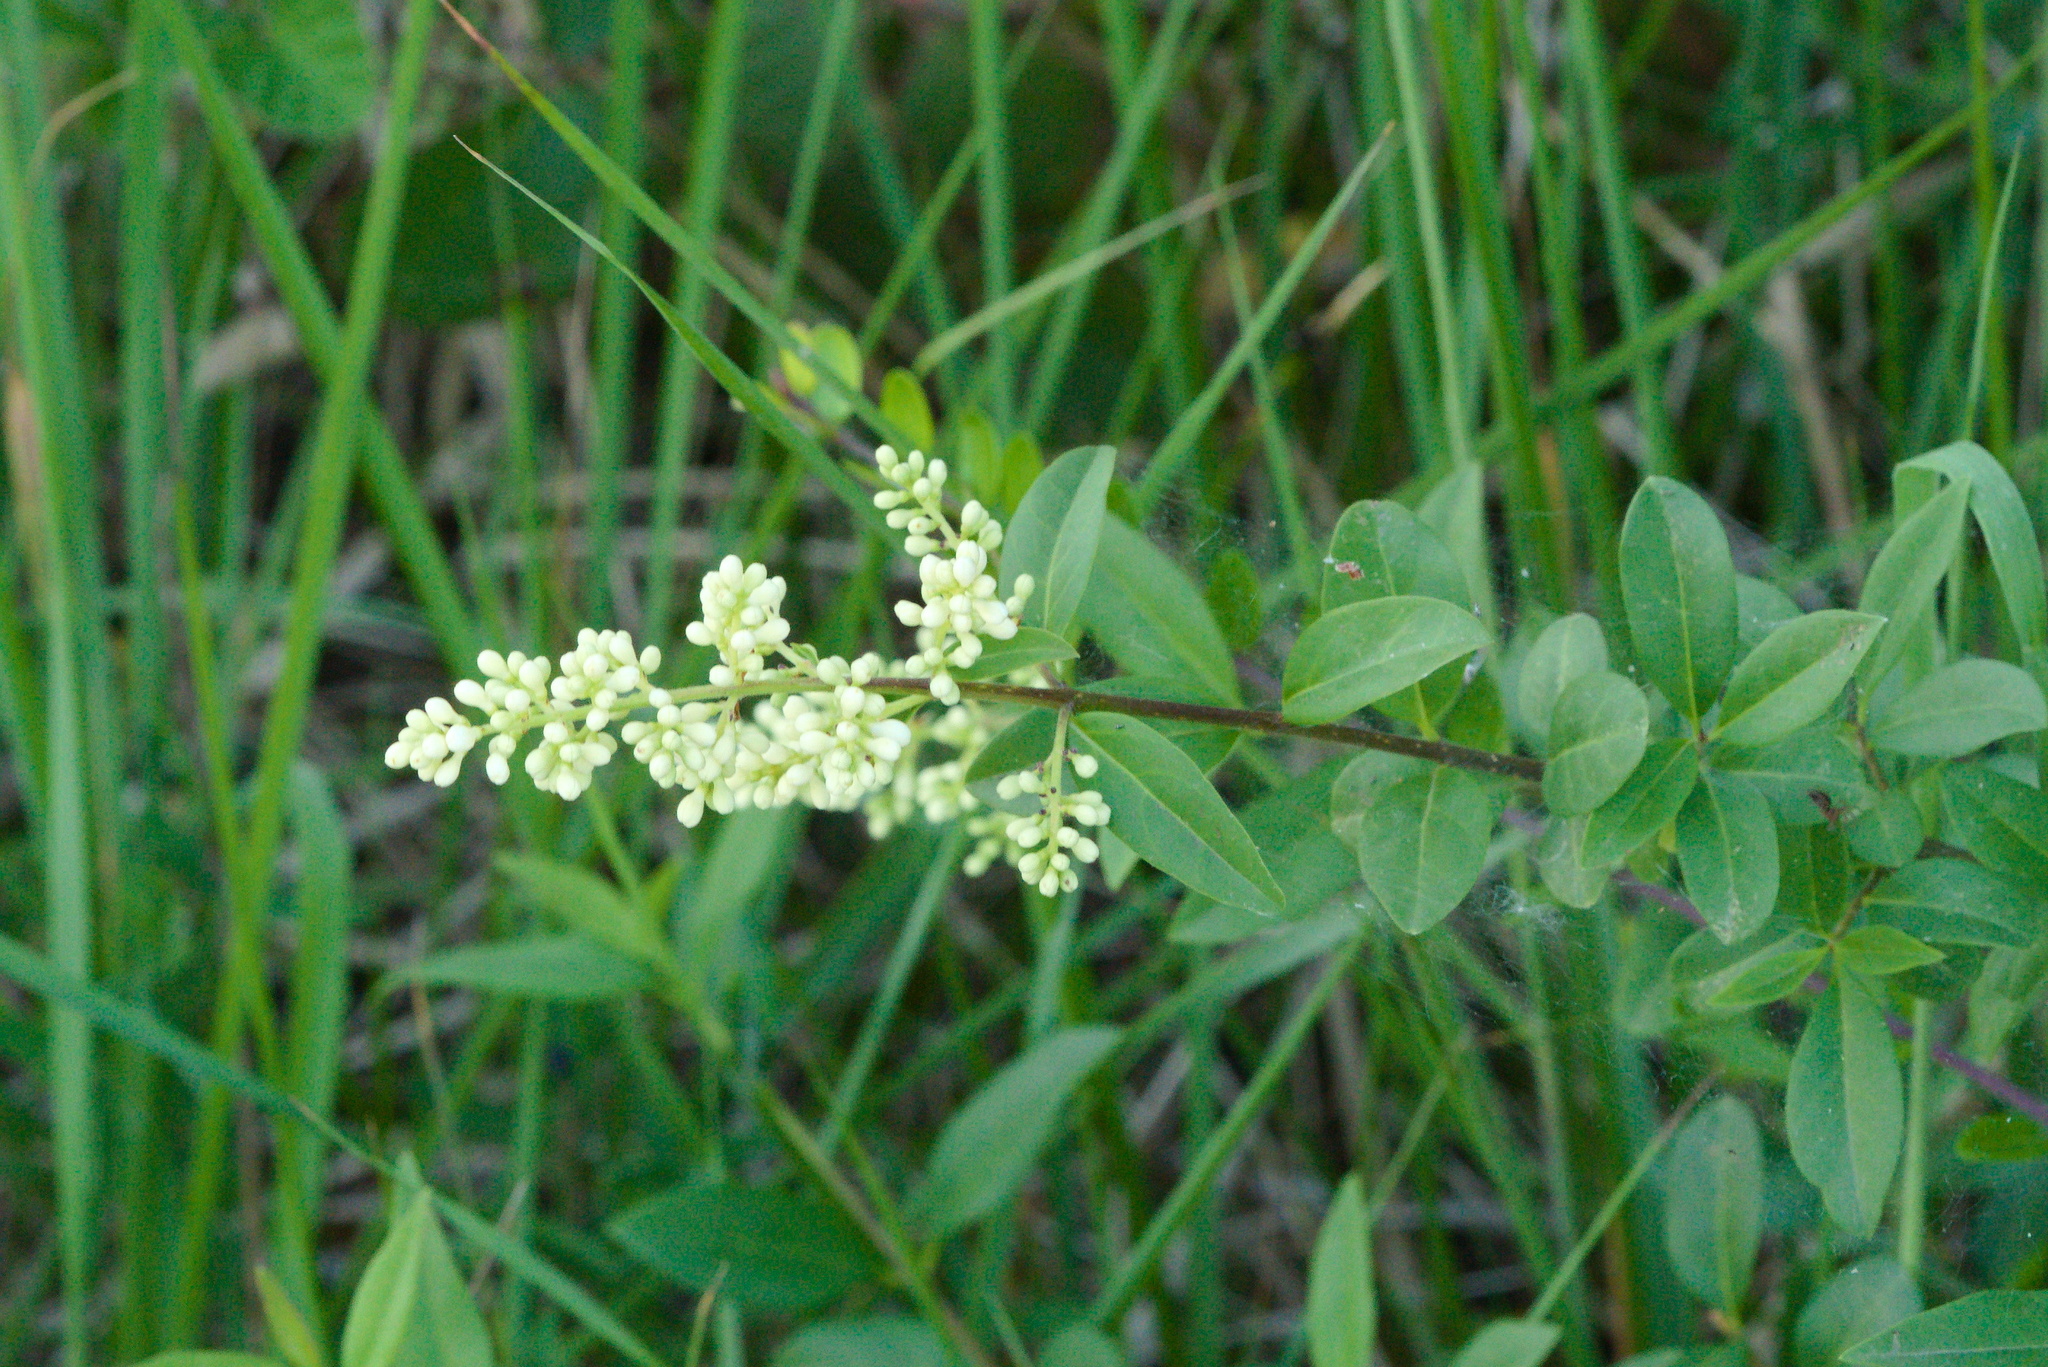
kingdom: Plantae
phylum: Tracheophyta
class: Magnoliopsida
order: Lamiales
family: Oleaceae
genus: Ligustrum
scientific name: Ligustrum vulgare
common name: Wild privet
